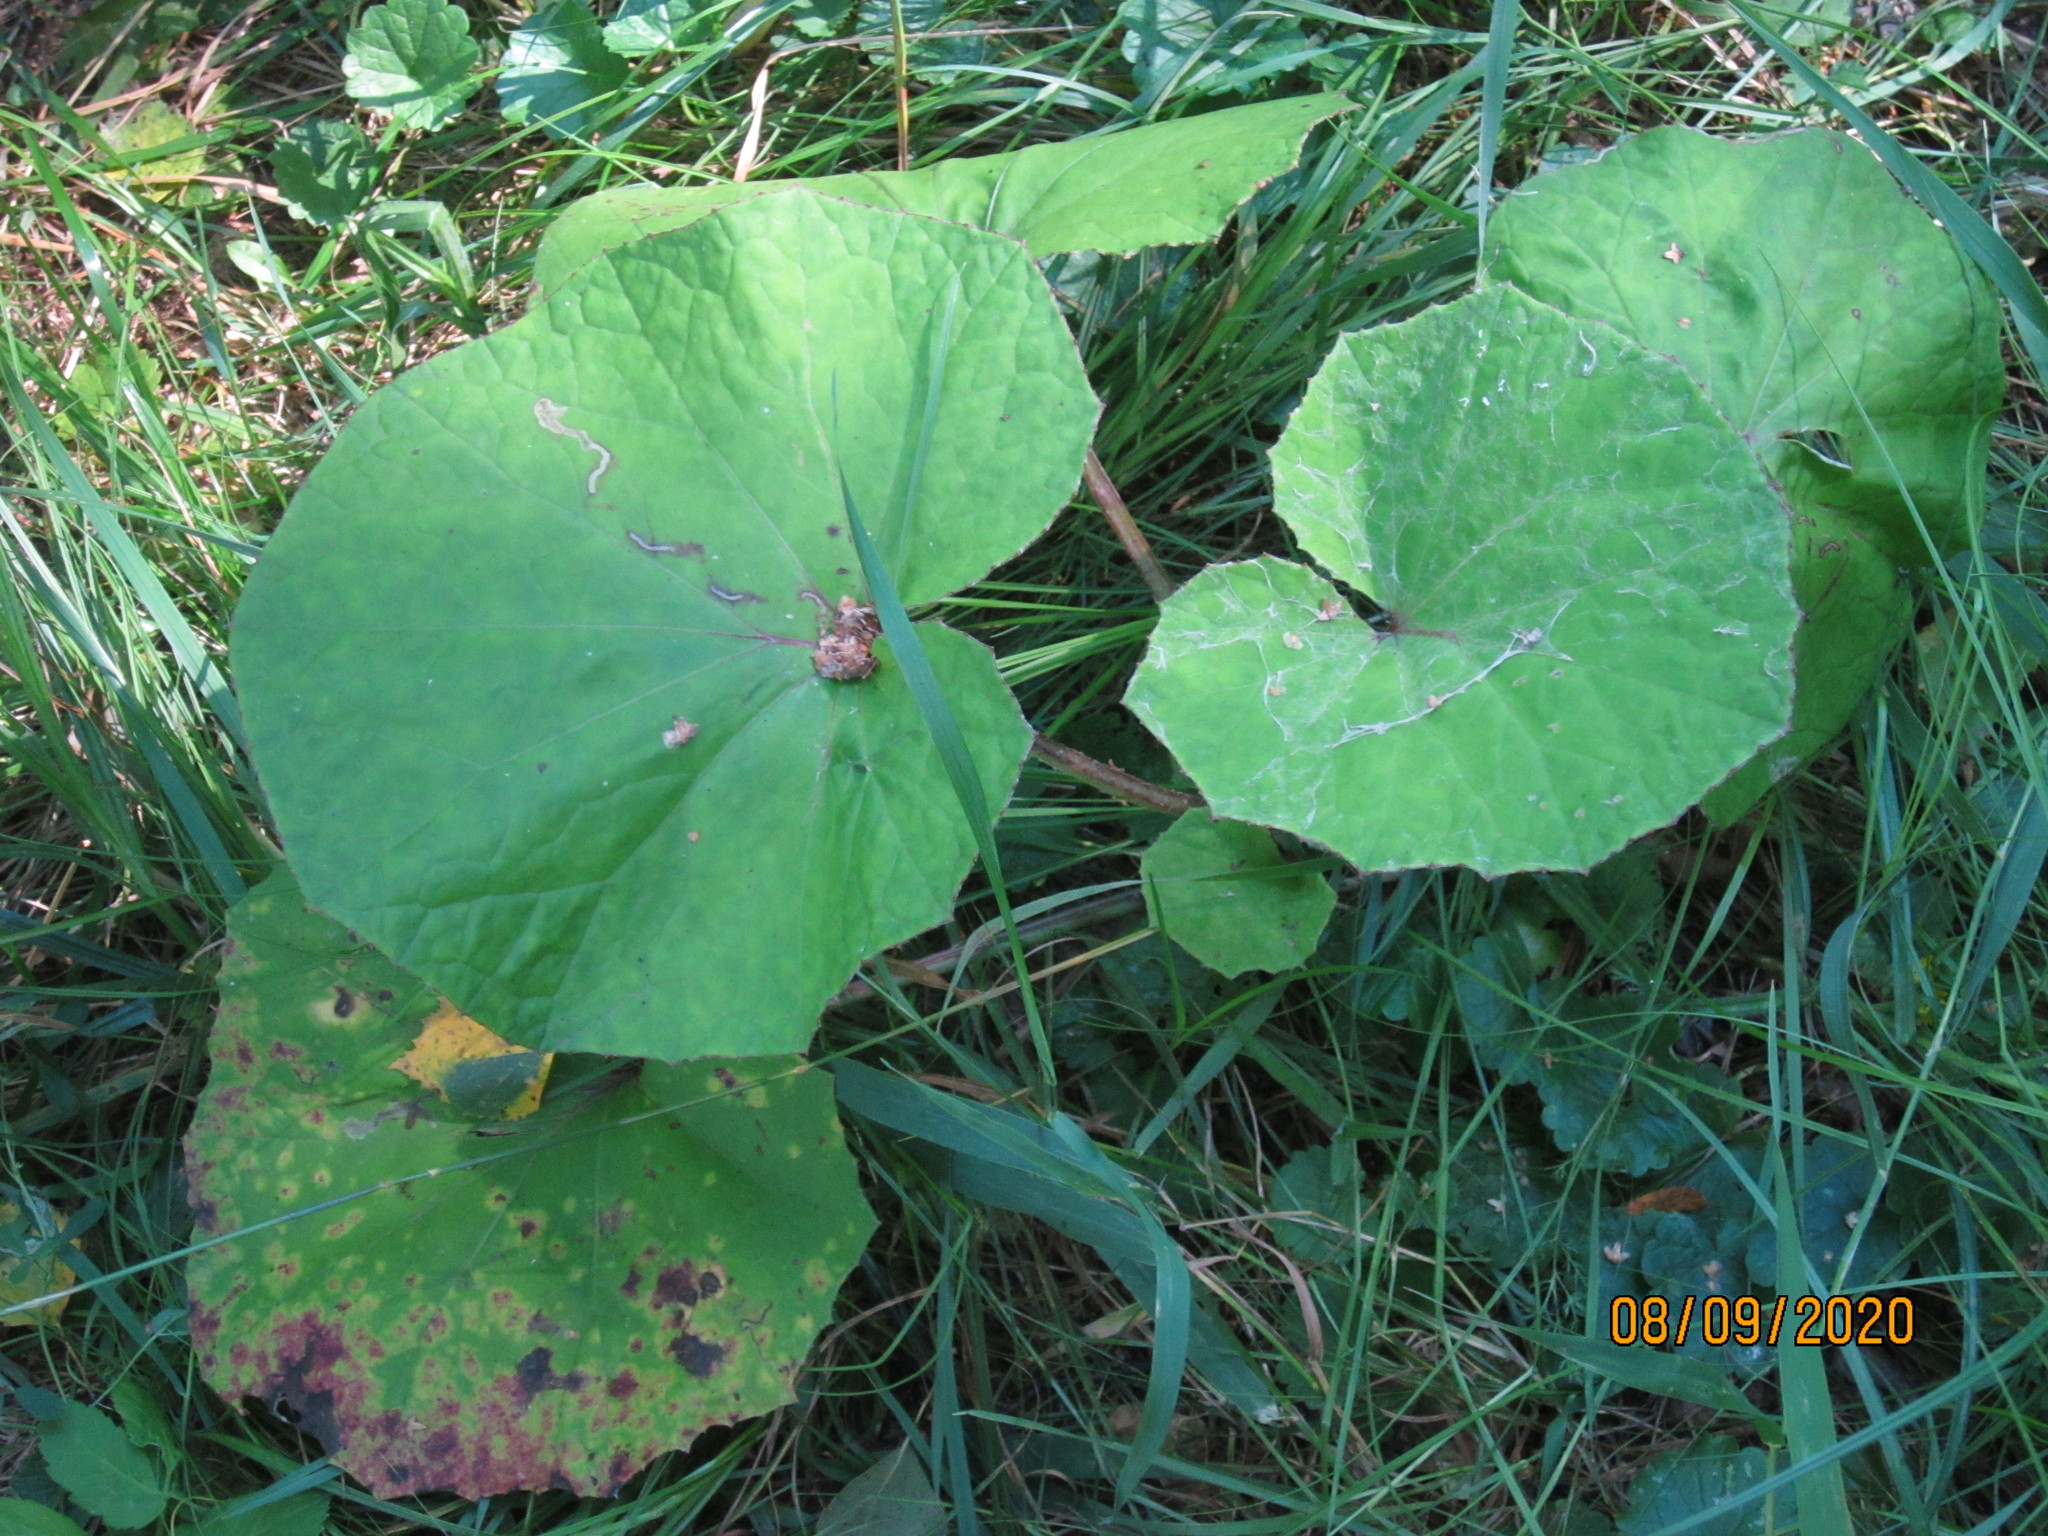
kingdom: Plantae
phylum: Tracheophyta
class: Magnoliopsida
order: Asterales
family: Asteraceae
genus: Tussilago
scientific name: Tussilago farfara
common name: Coltsfoot
